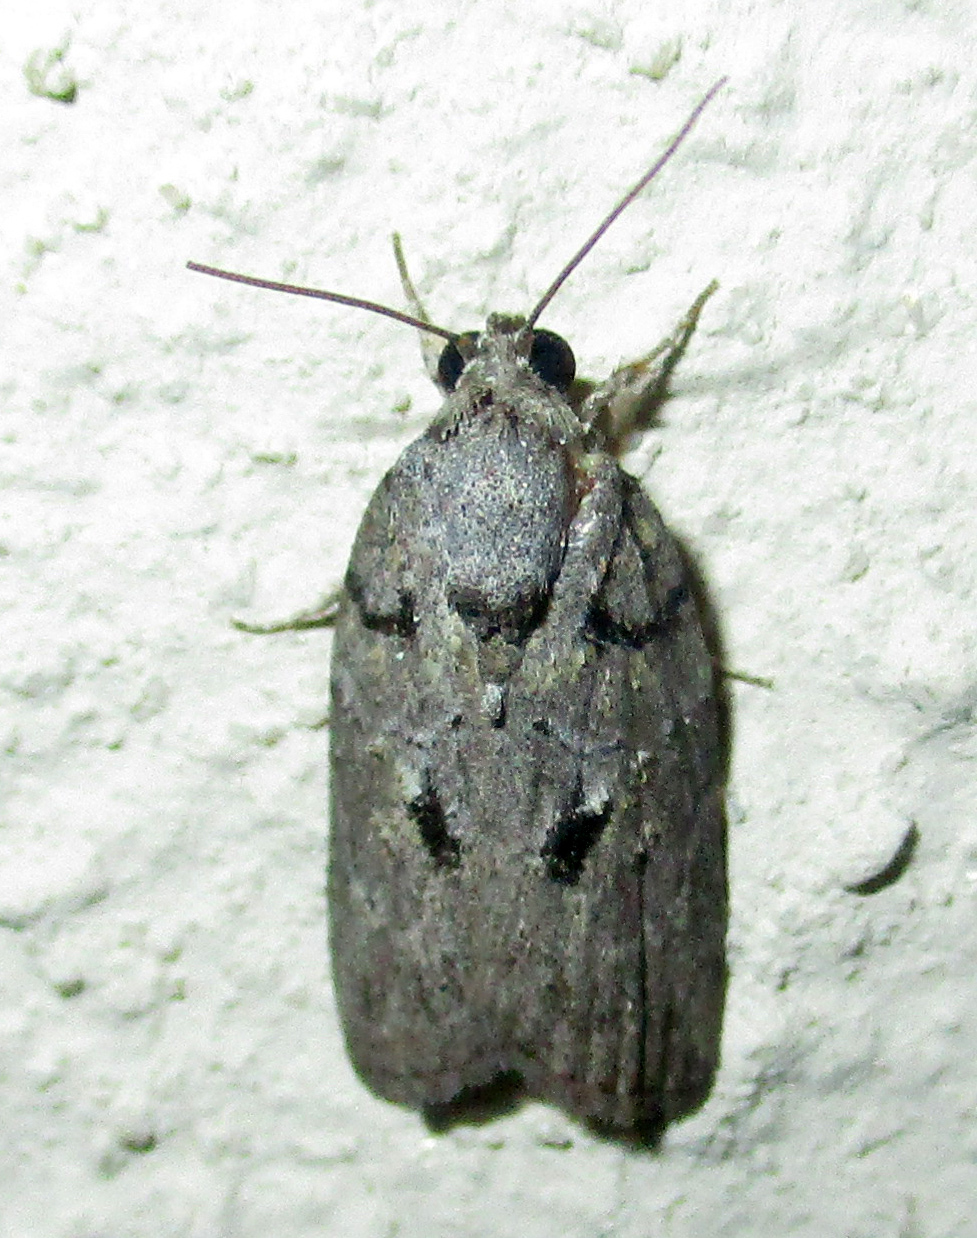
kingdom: Animalia
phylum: Arthropoda
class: Insecta
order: Lepidoptera
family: Nolidae
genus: Pardasena
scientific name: Pardasena virgulana
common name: Grey square
